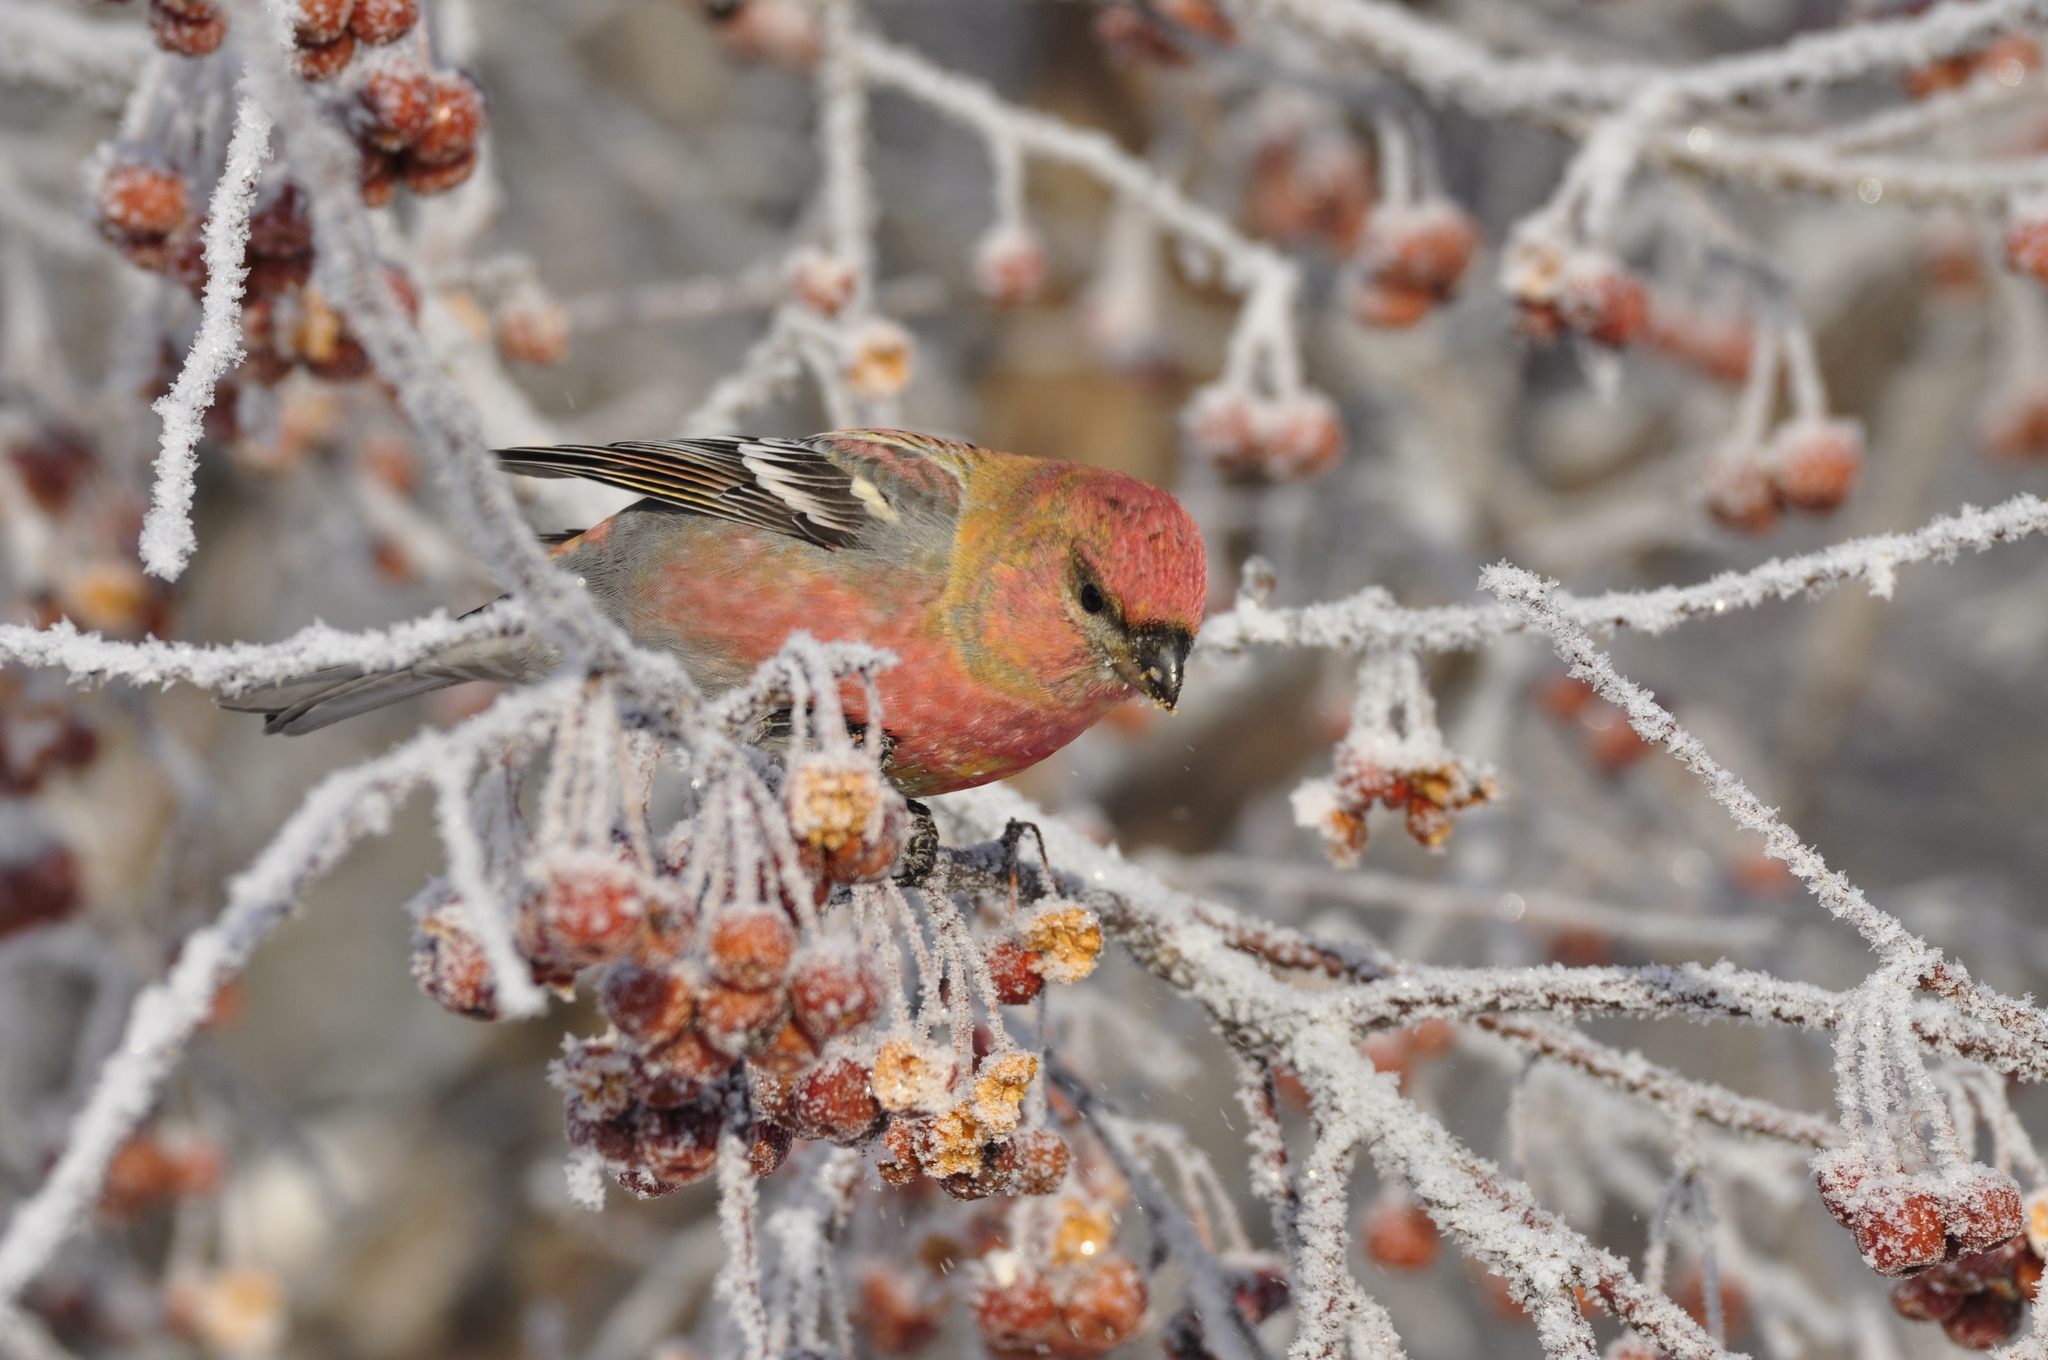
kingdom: Animalia
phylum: Chordata
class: Aves
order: Passeriformes
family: Fringillidae
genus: Pinicola
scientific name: Pinicola enucleator
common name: Pine grosbeak
